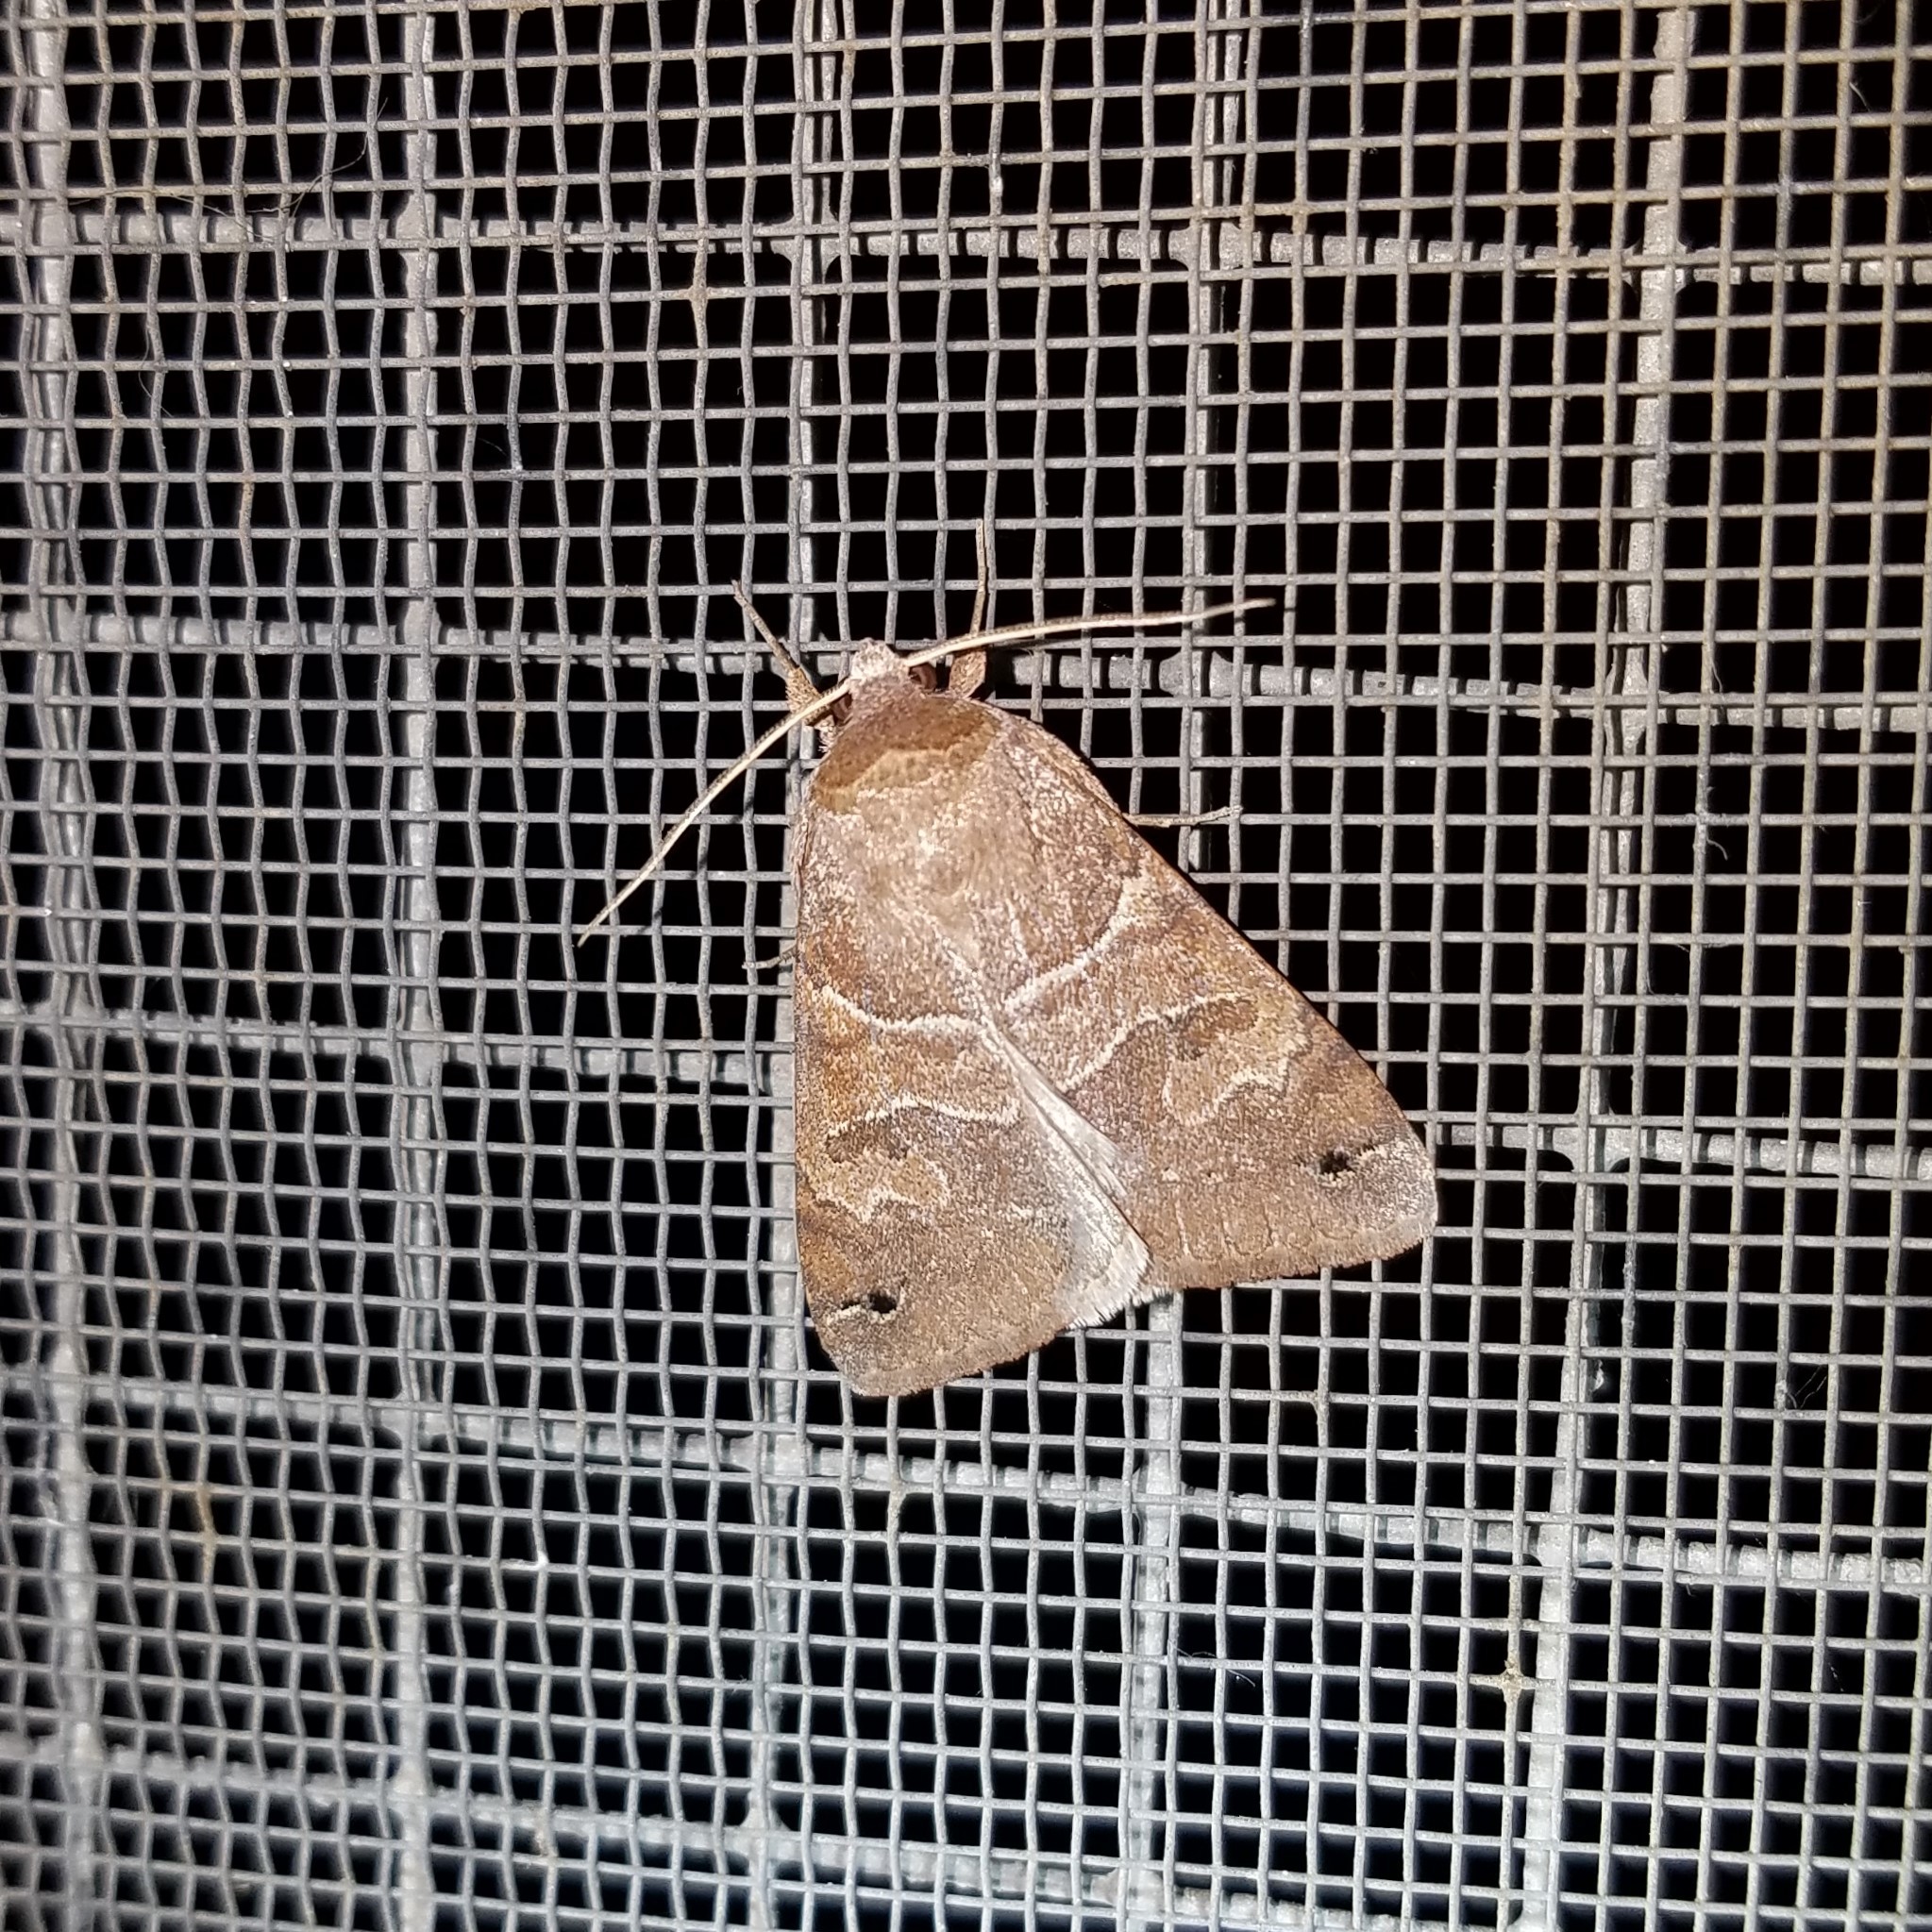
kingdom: Animalia
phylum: Arthropoda
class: Insecta
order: Lepidoptera
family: Erebidae
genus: Cissusa
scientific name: Cissusa spadix
